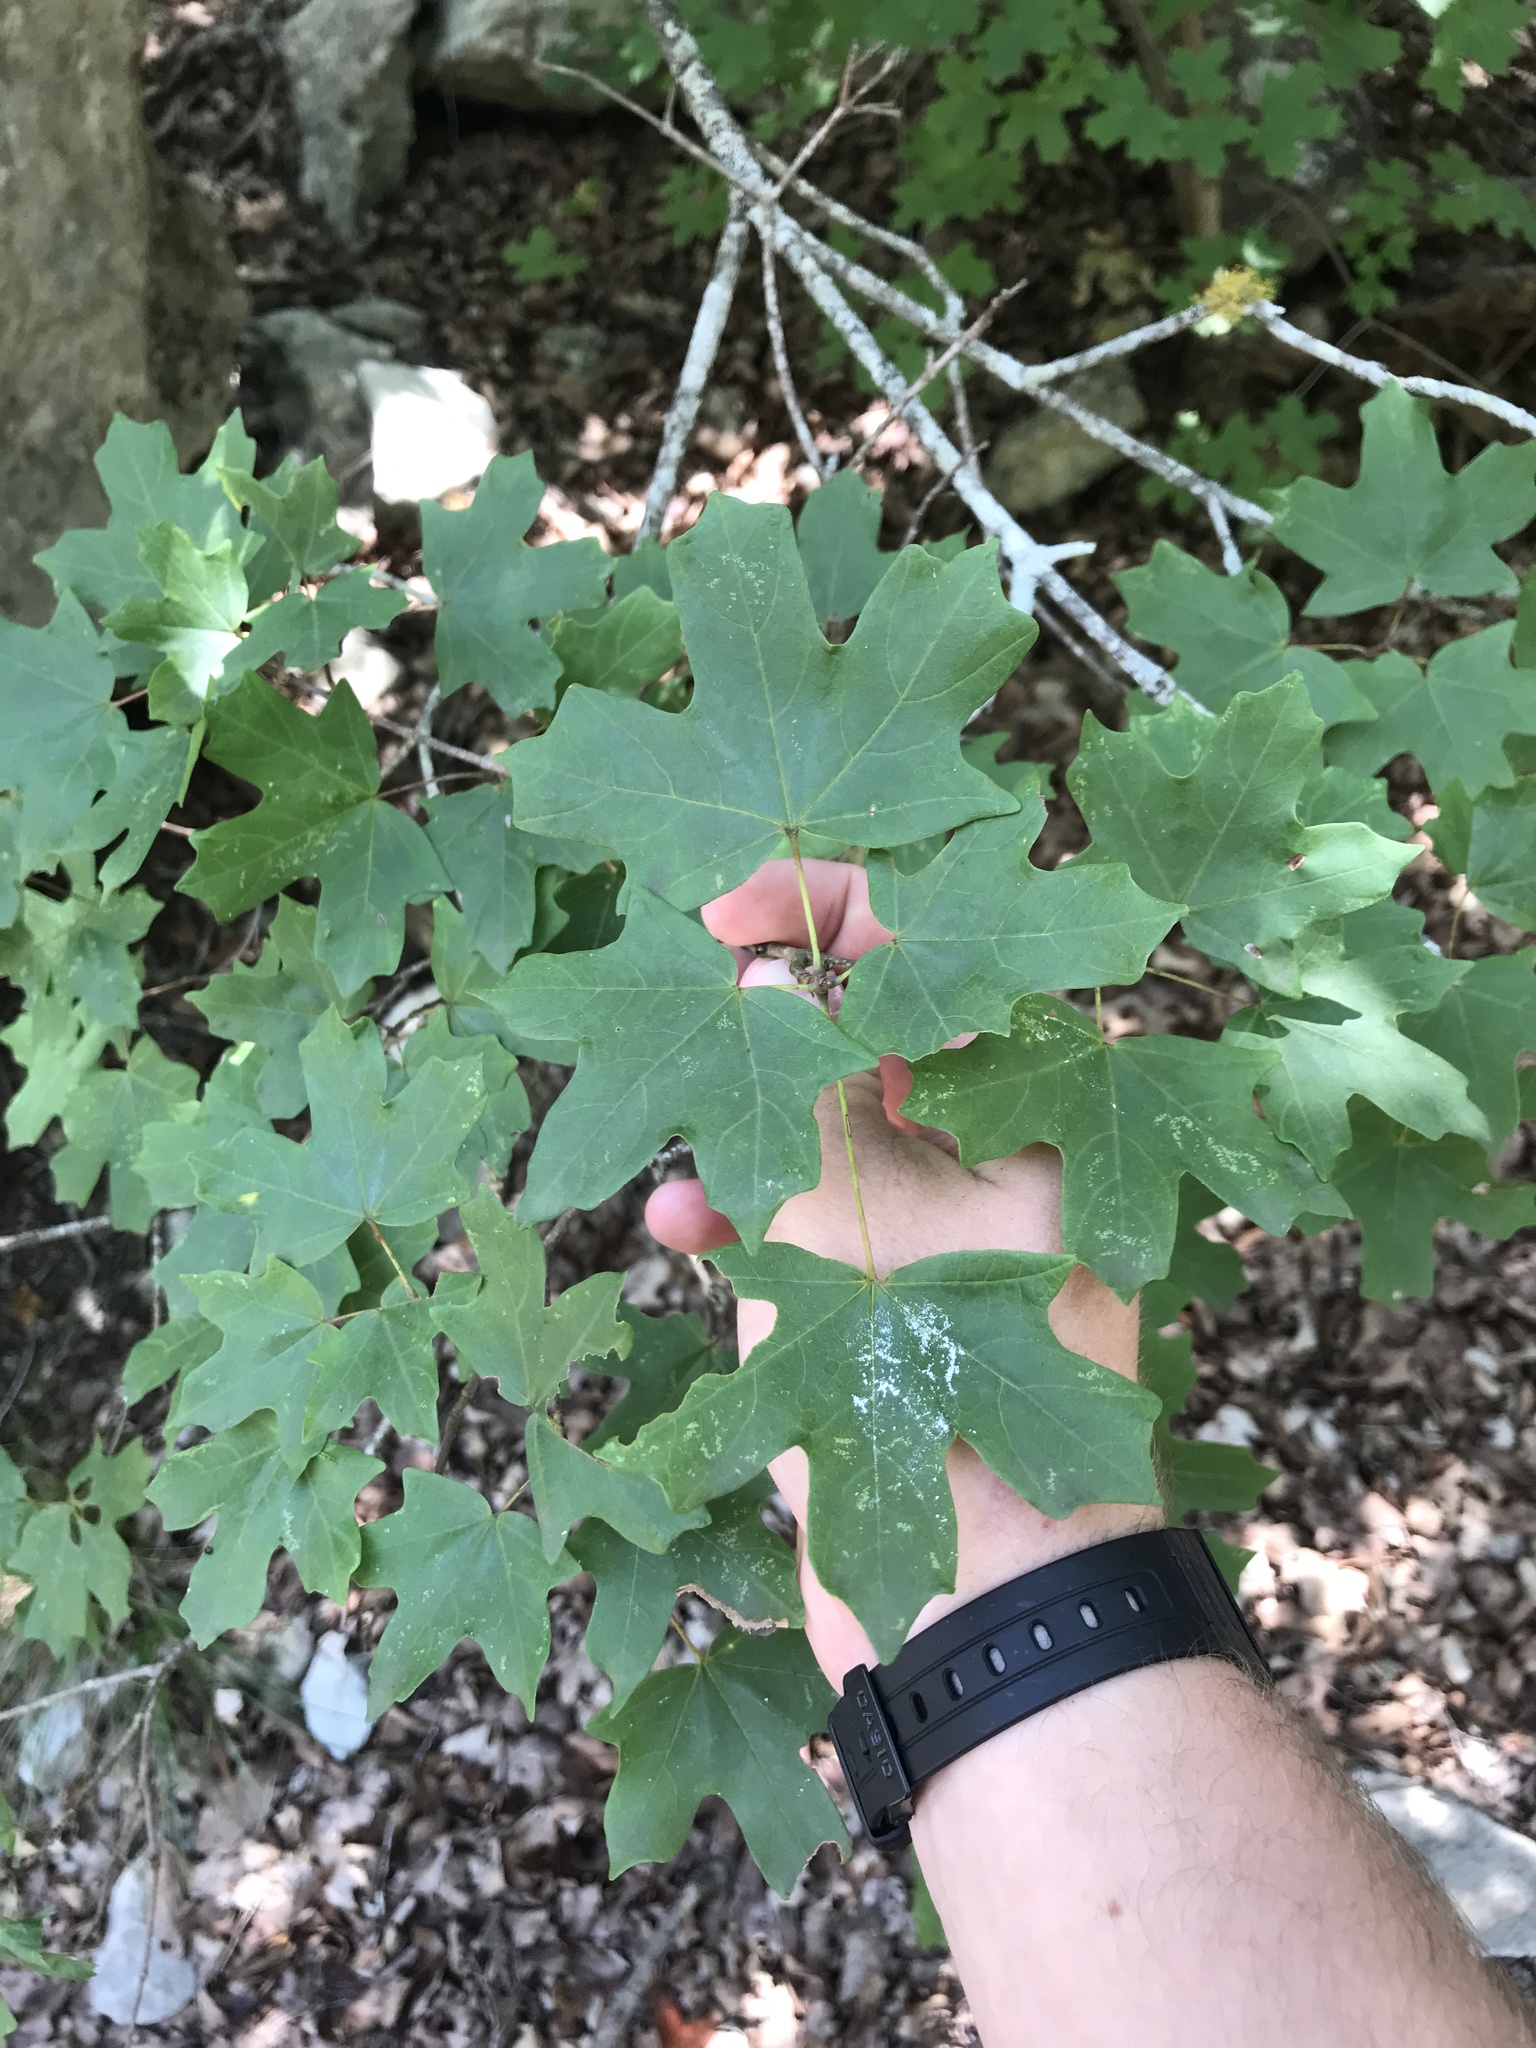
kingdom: Plantae
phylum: Tracheophyta
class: Magnoliopsida
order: Sapindales
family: Sapindaceae
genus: Acer
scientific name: Acer grandidentatum
